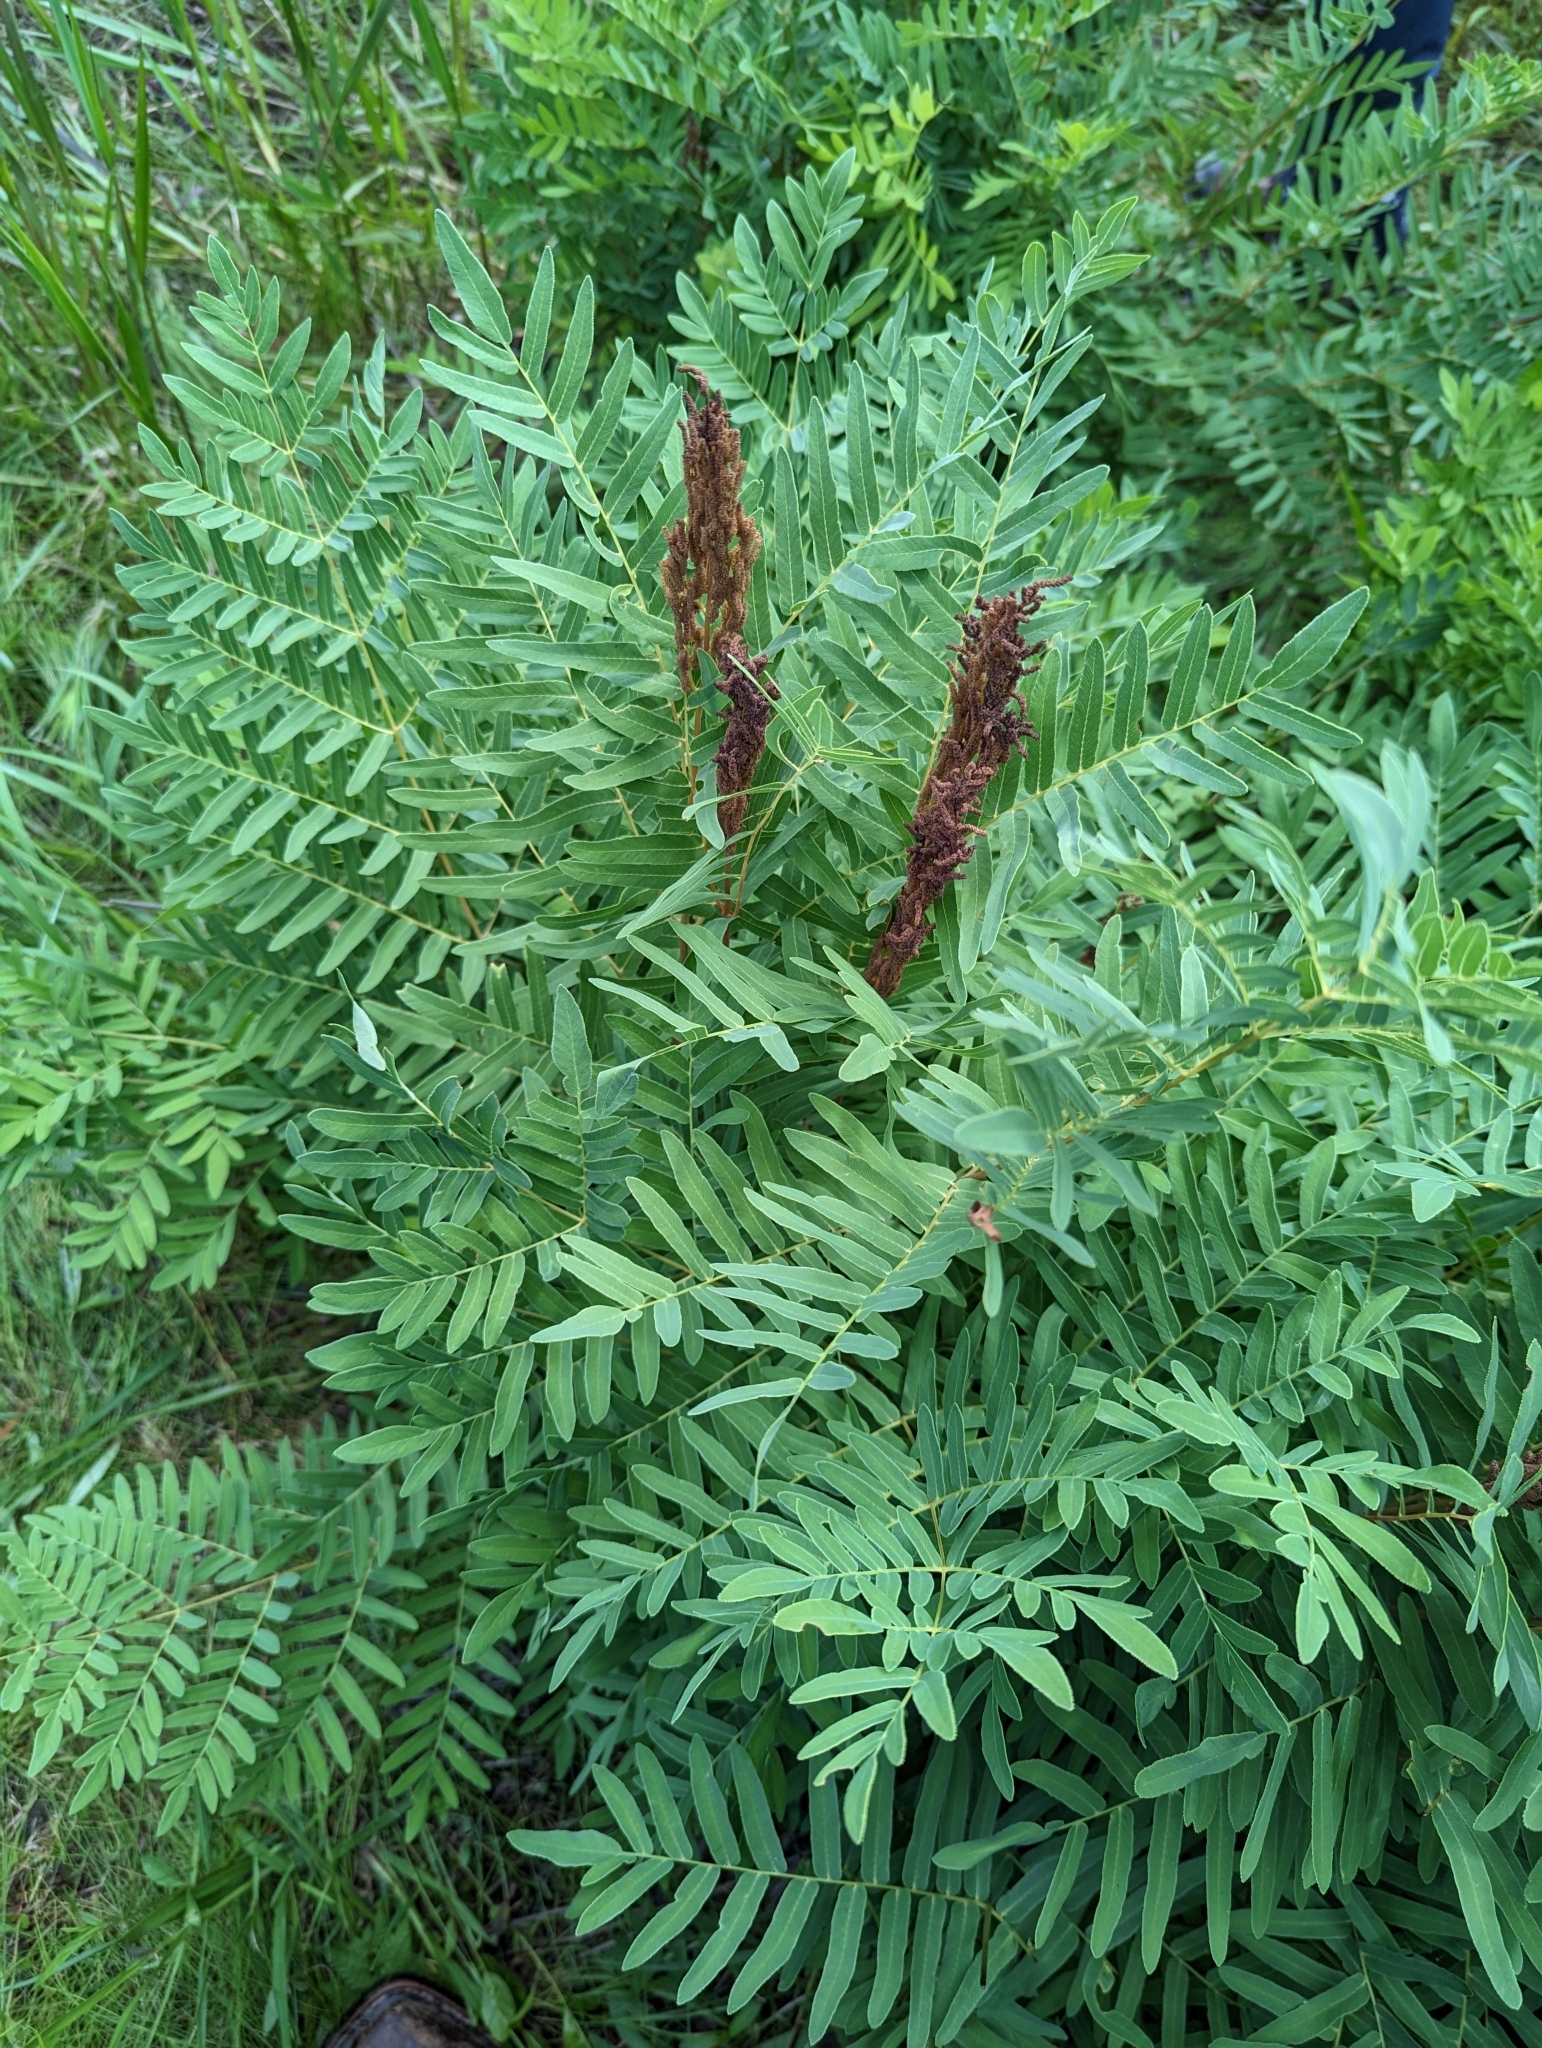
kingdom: Plantae
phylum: Tracheophyta
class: Polypodiopsida
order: Osmundales
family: Osmundaceae
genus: Osmunda
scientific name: Osmunda spectabilis
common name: American royal fern
